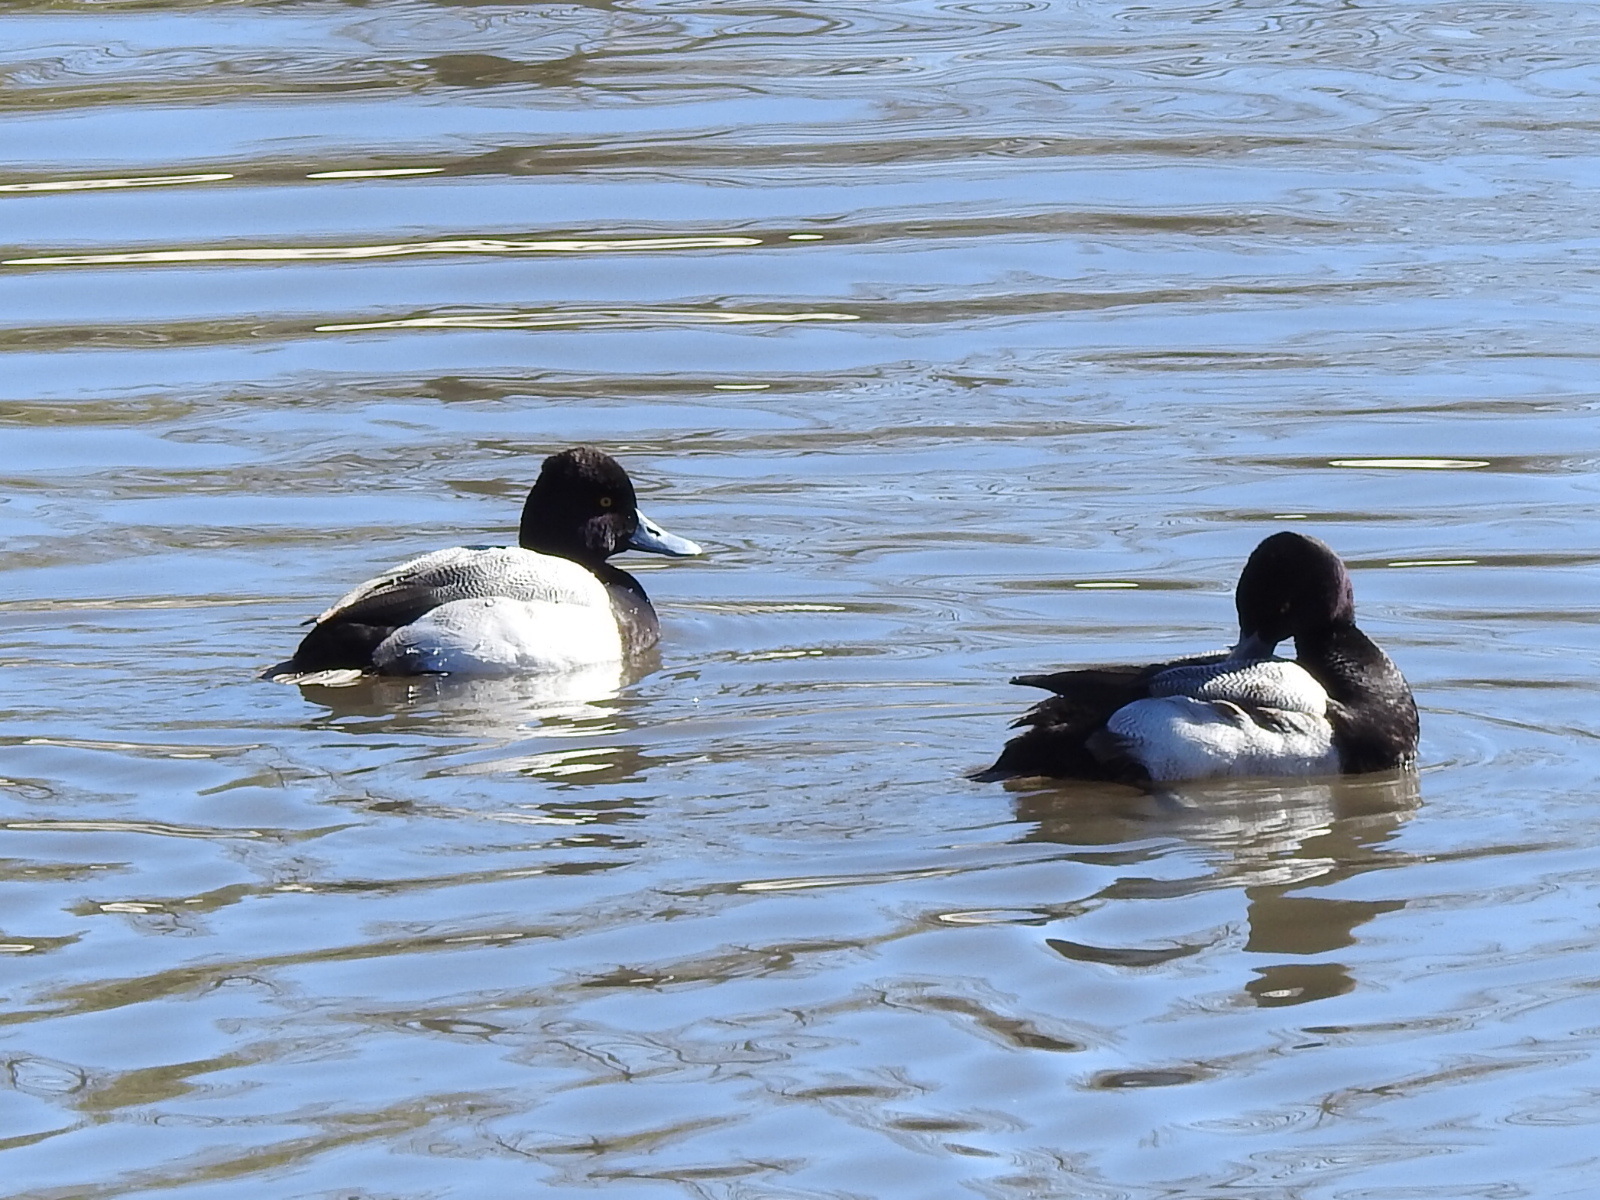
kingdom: Animalia
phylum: Chordata
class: Aves
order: Anseriformes
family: Anatidae
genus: Aythya
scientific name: Aythya affinis
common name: Lesser scaup
